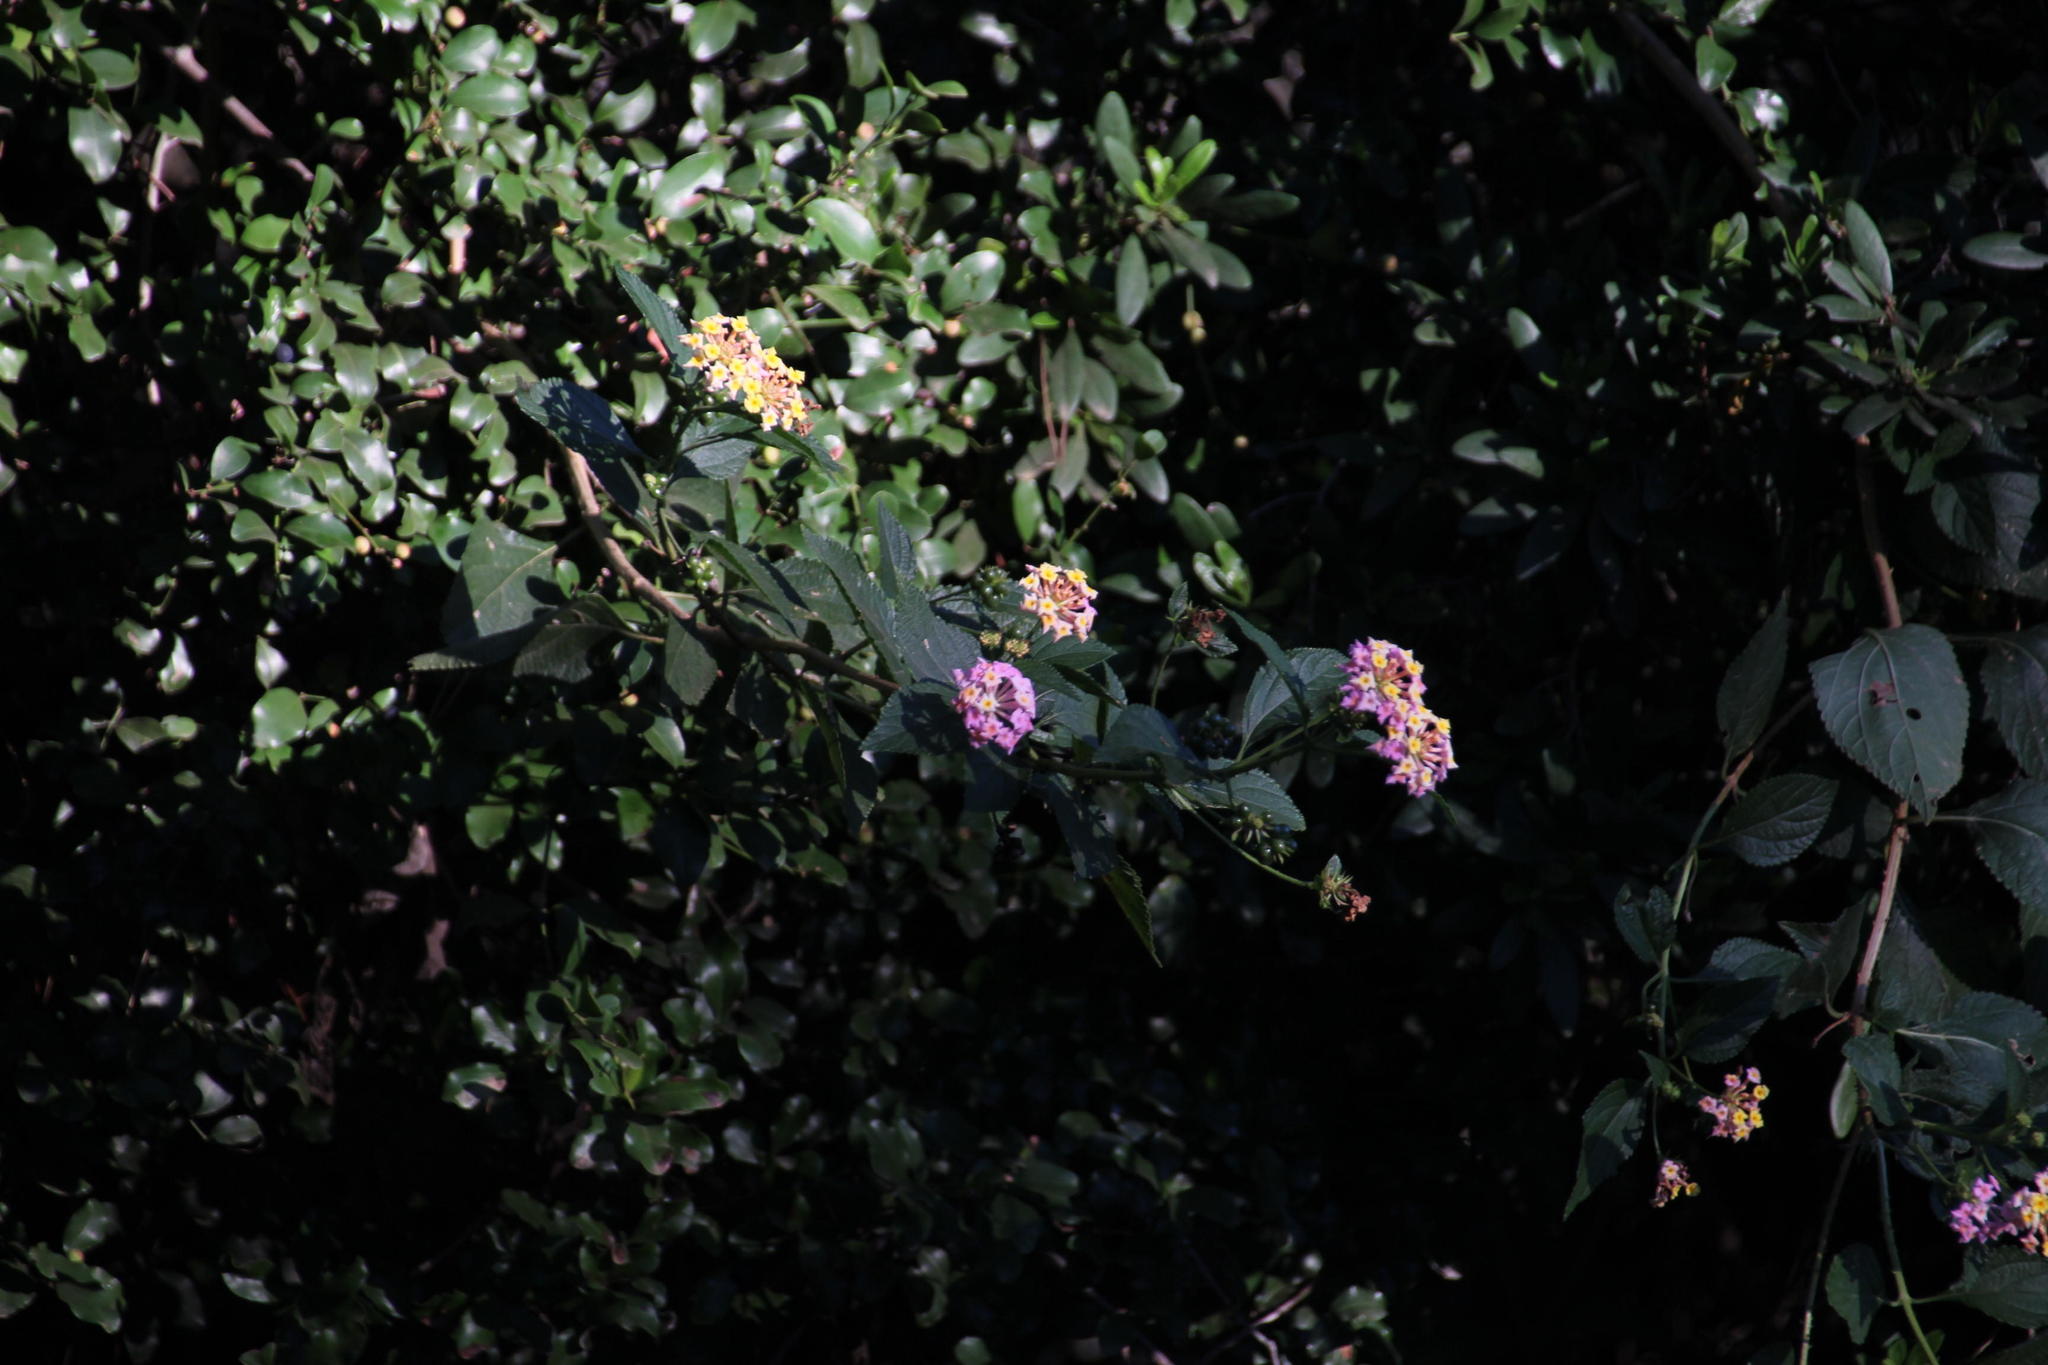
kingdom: Plantae
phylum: Tracheophyta
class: Magnoliopsida
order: Lamiales
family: Verbenaceae
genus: Lantana
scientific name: Lantana camara
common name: Lantana
